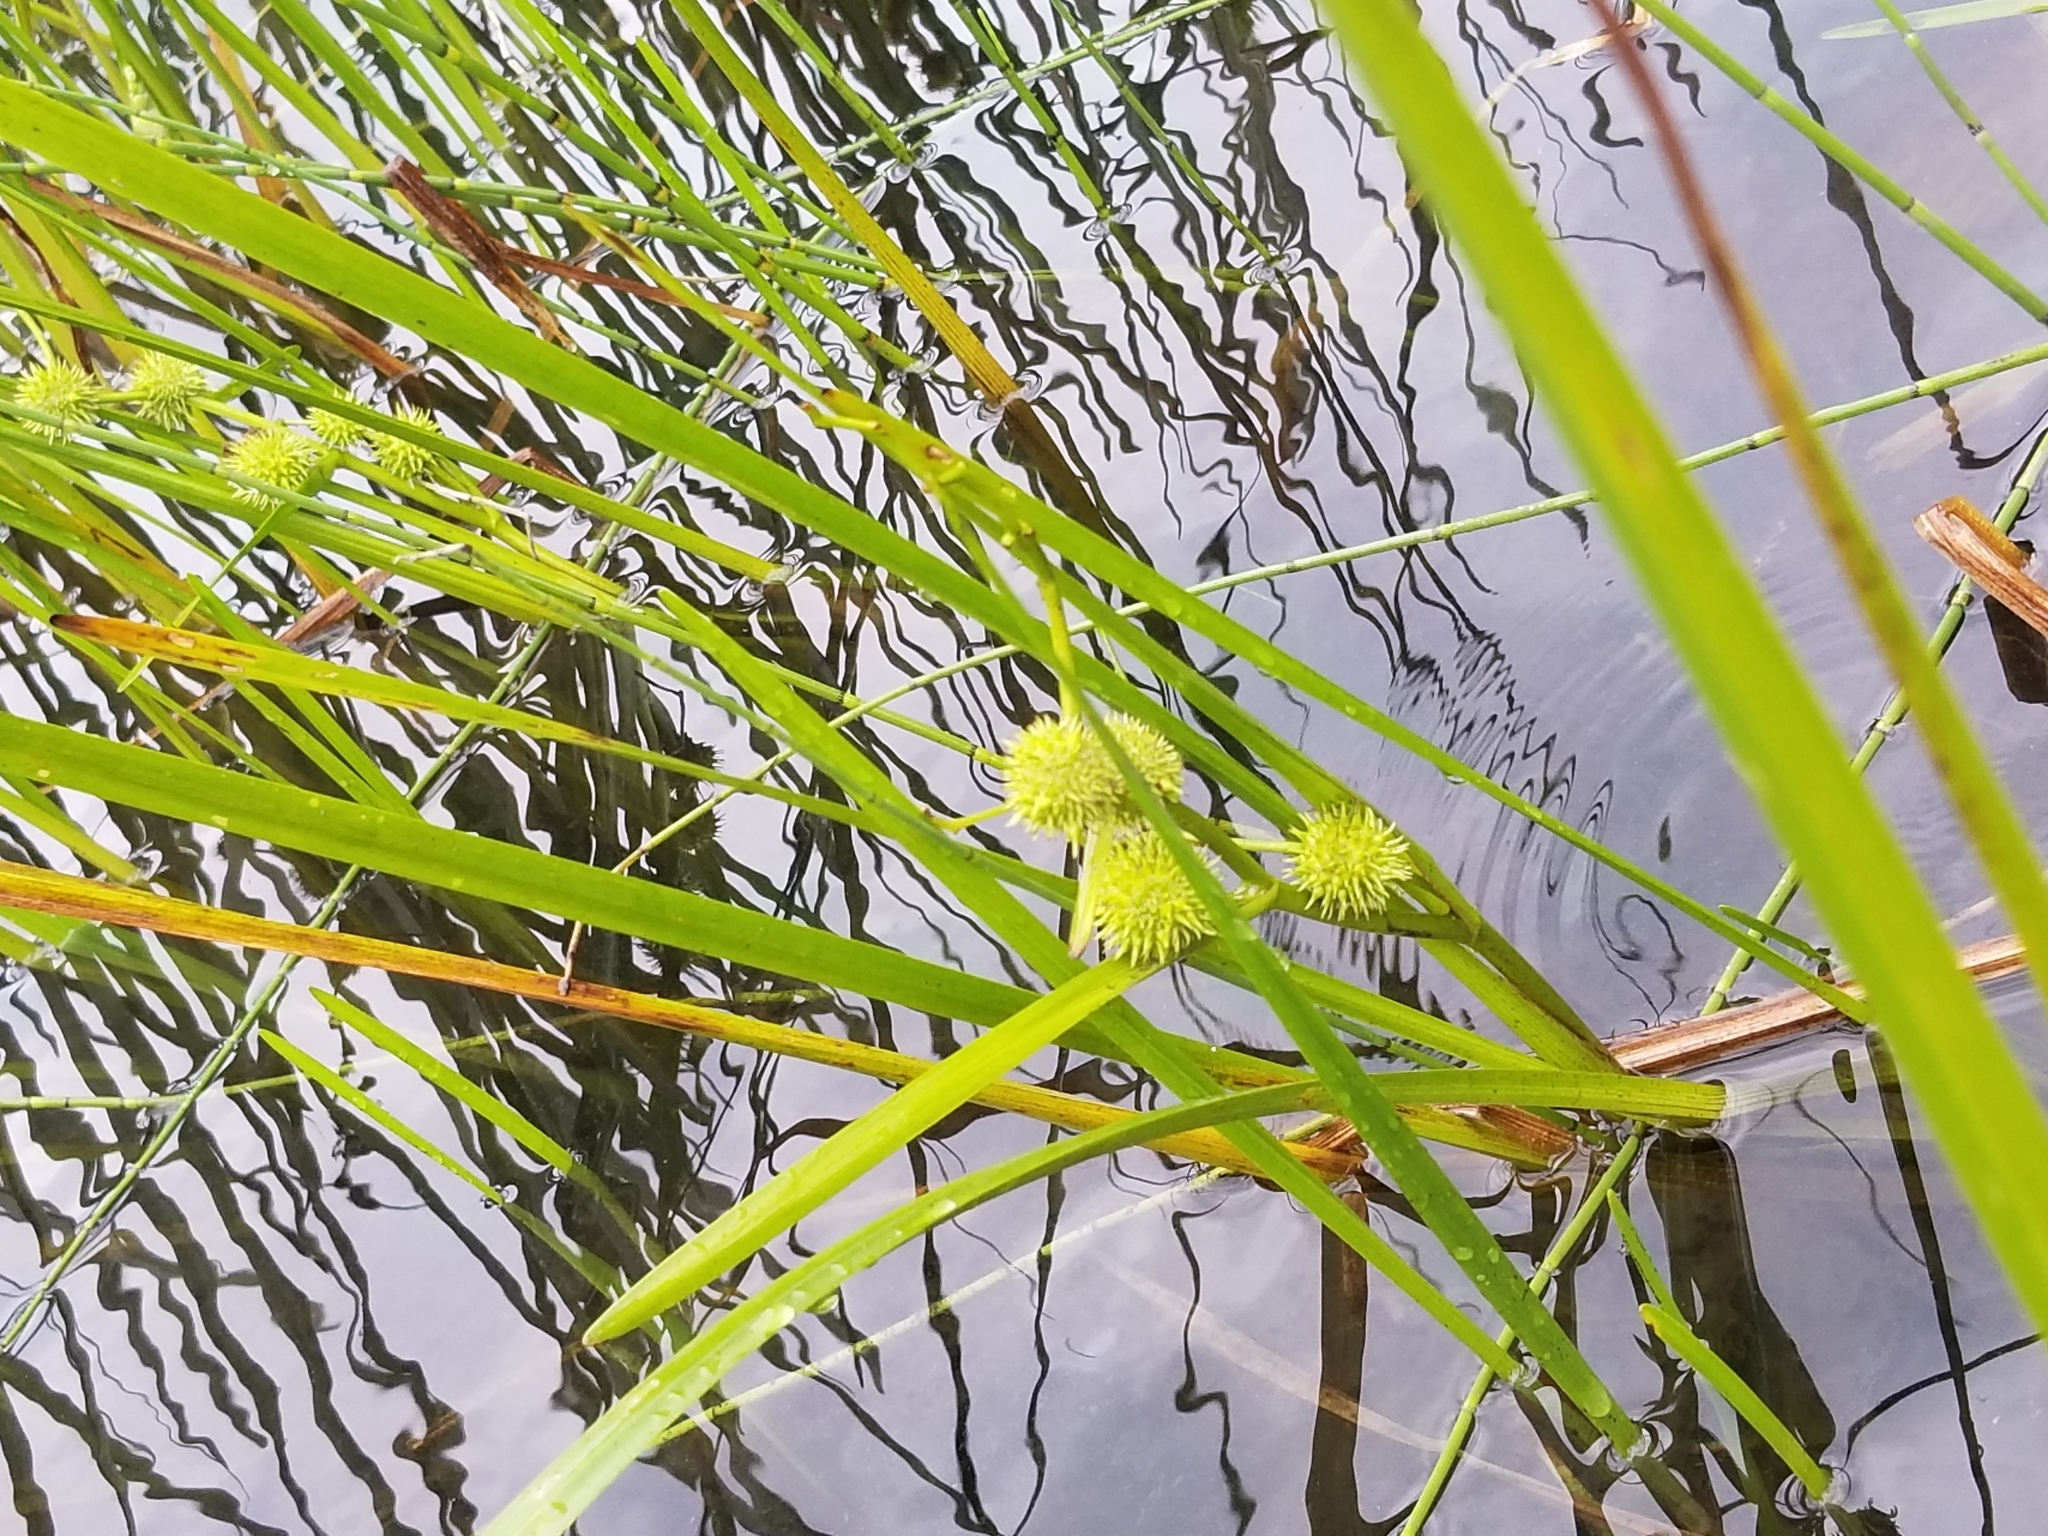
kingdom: Plantae
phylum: Tracheophyta
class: Liliopsida
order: Poales
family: Typhaceae
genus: Sparganium
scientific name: Sparganium americanum
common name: American burreed
